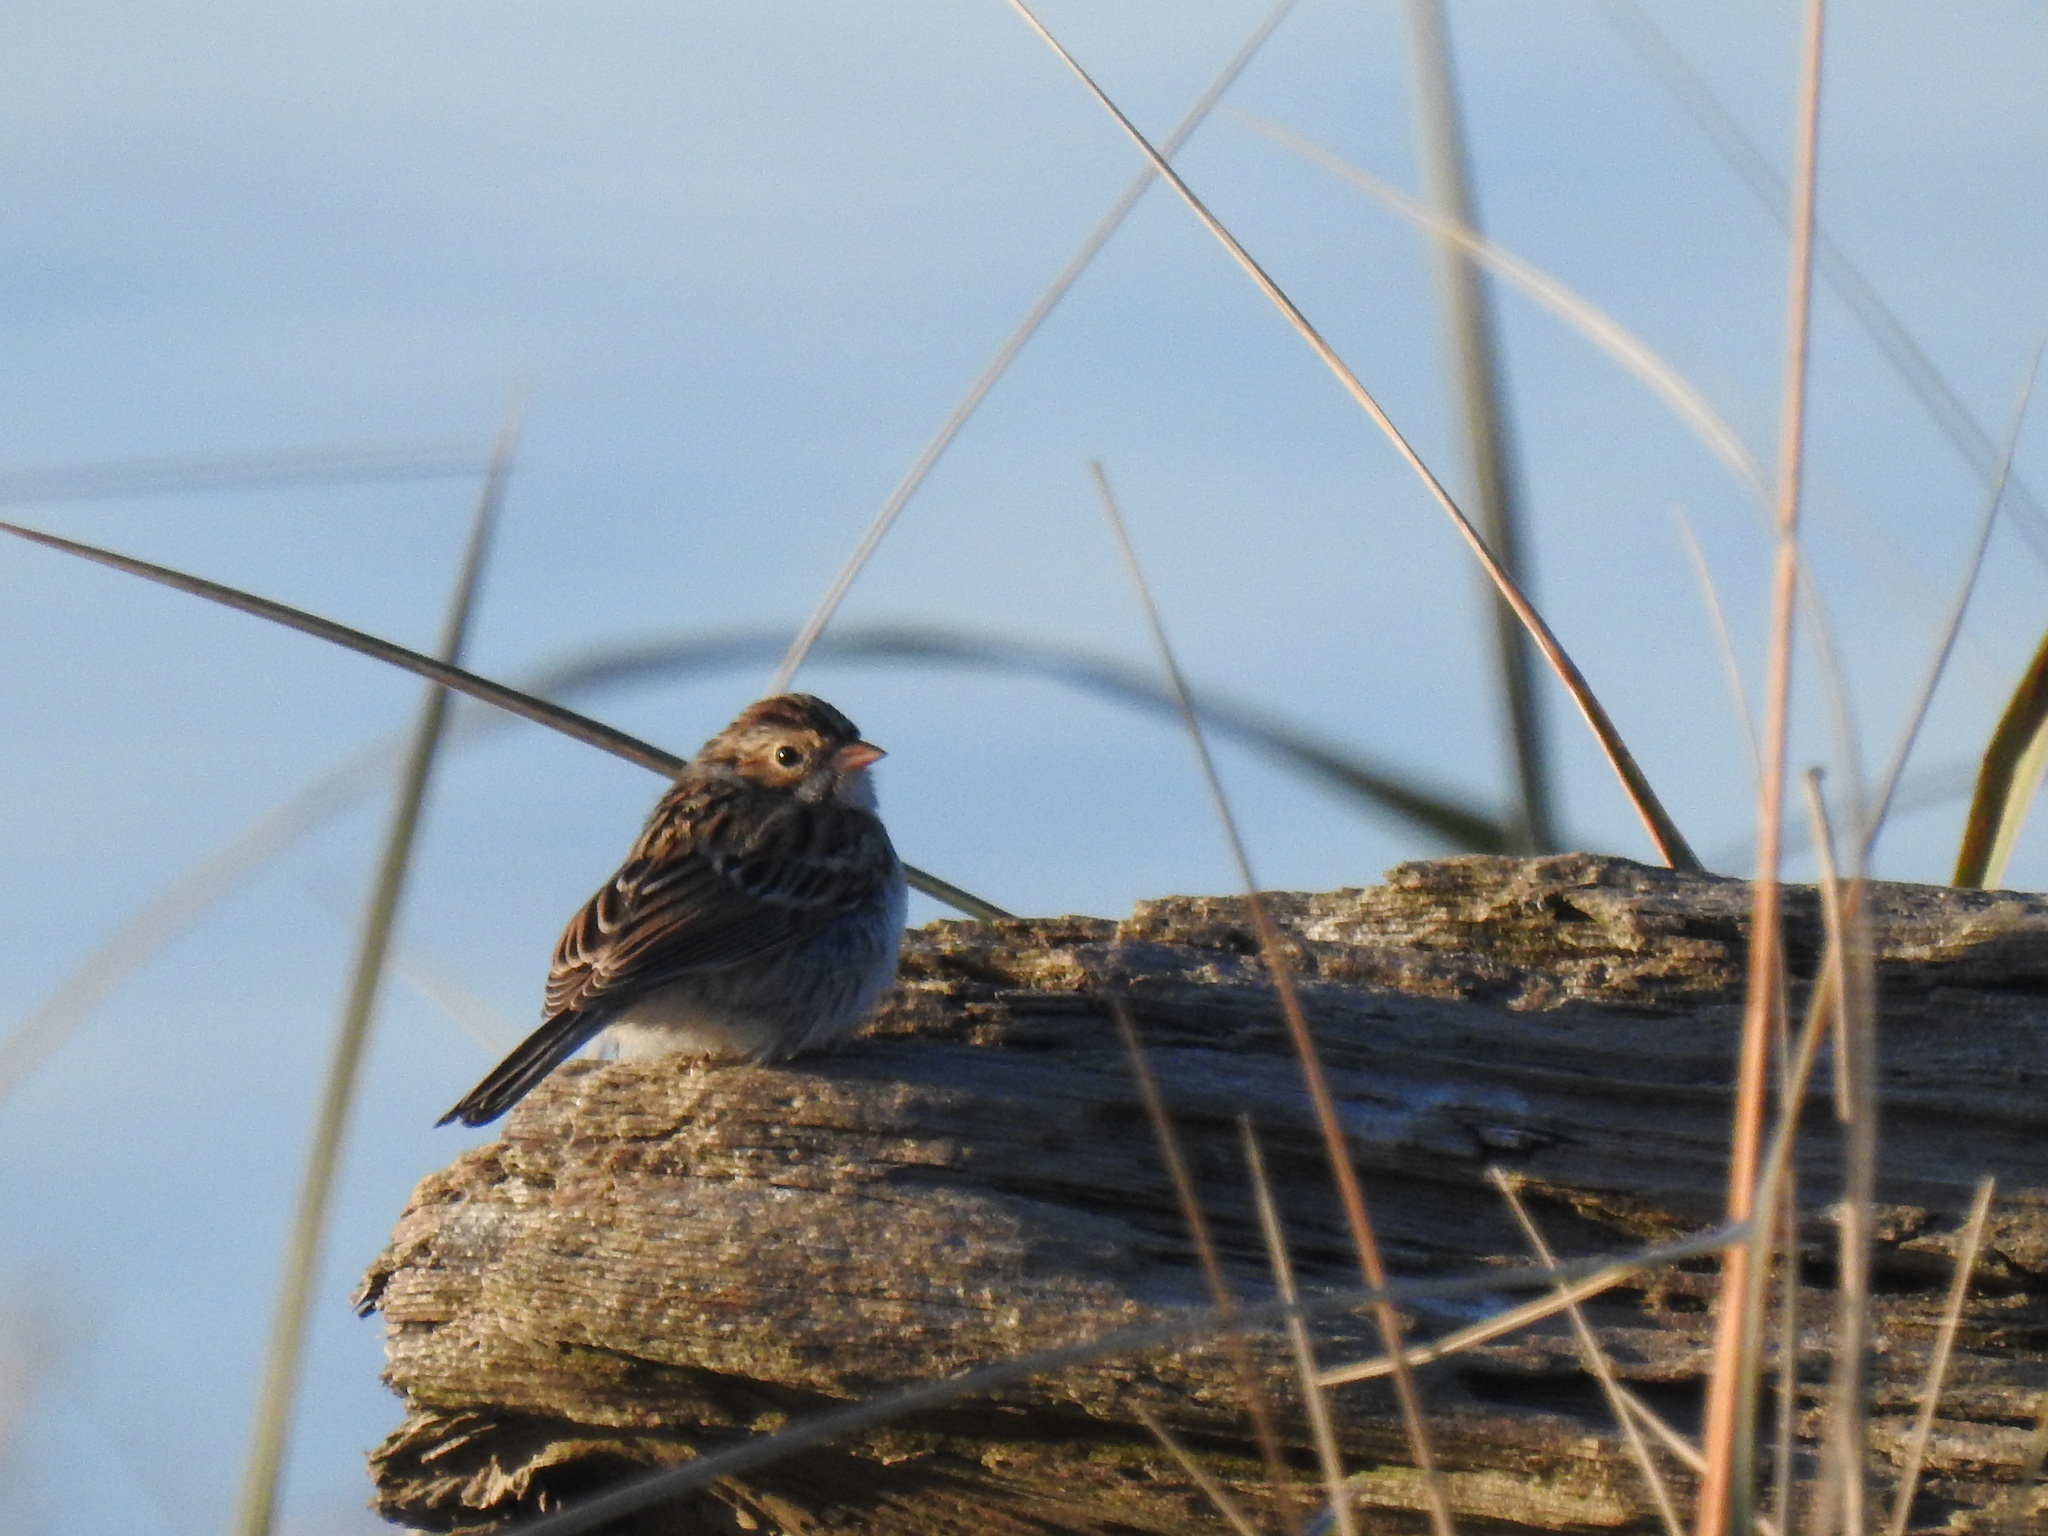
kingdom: Animalia
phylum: Chordata
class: Aves
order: Passeriformes
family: Passerellidae
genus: Spizella
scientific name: Spizella pallida
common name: Clay-colored sparrow
